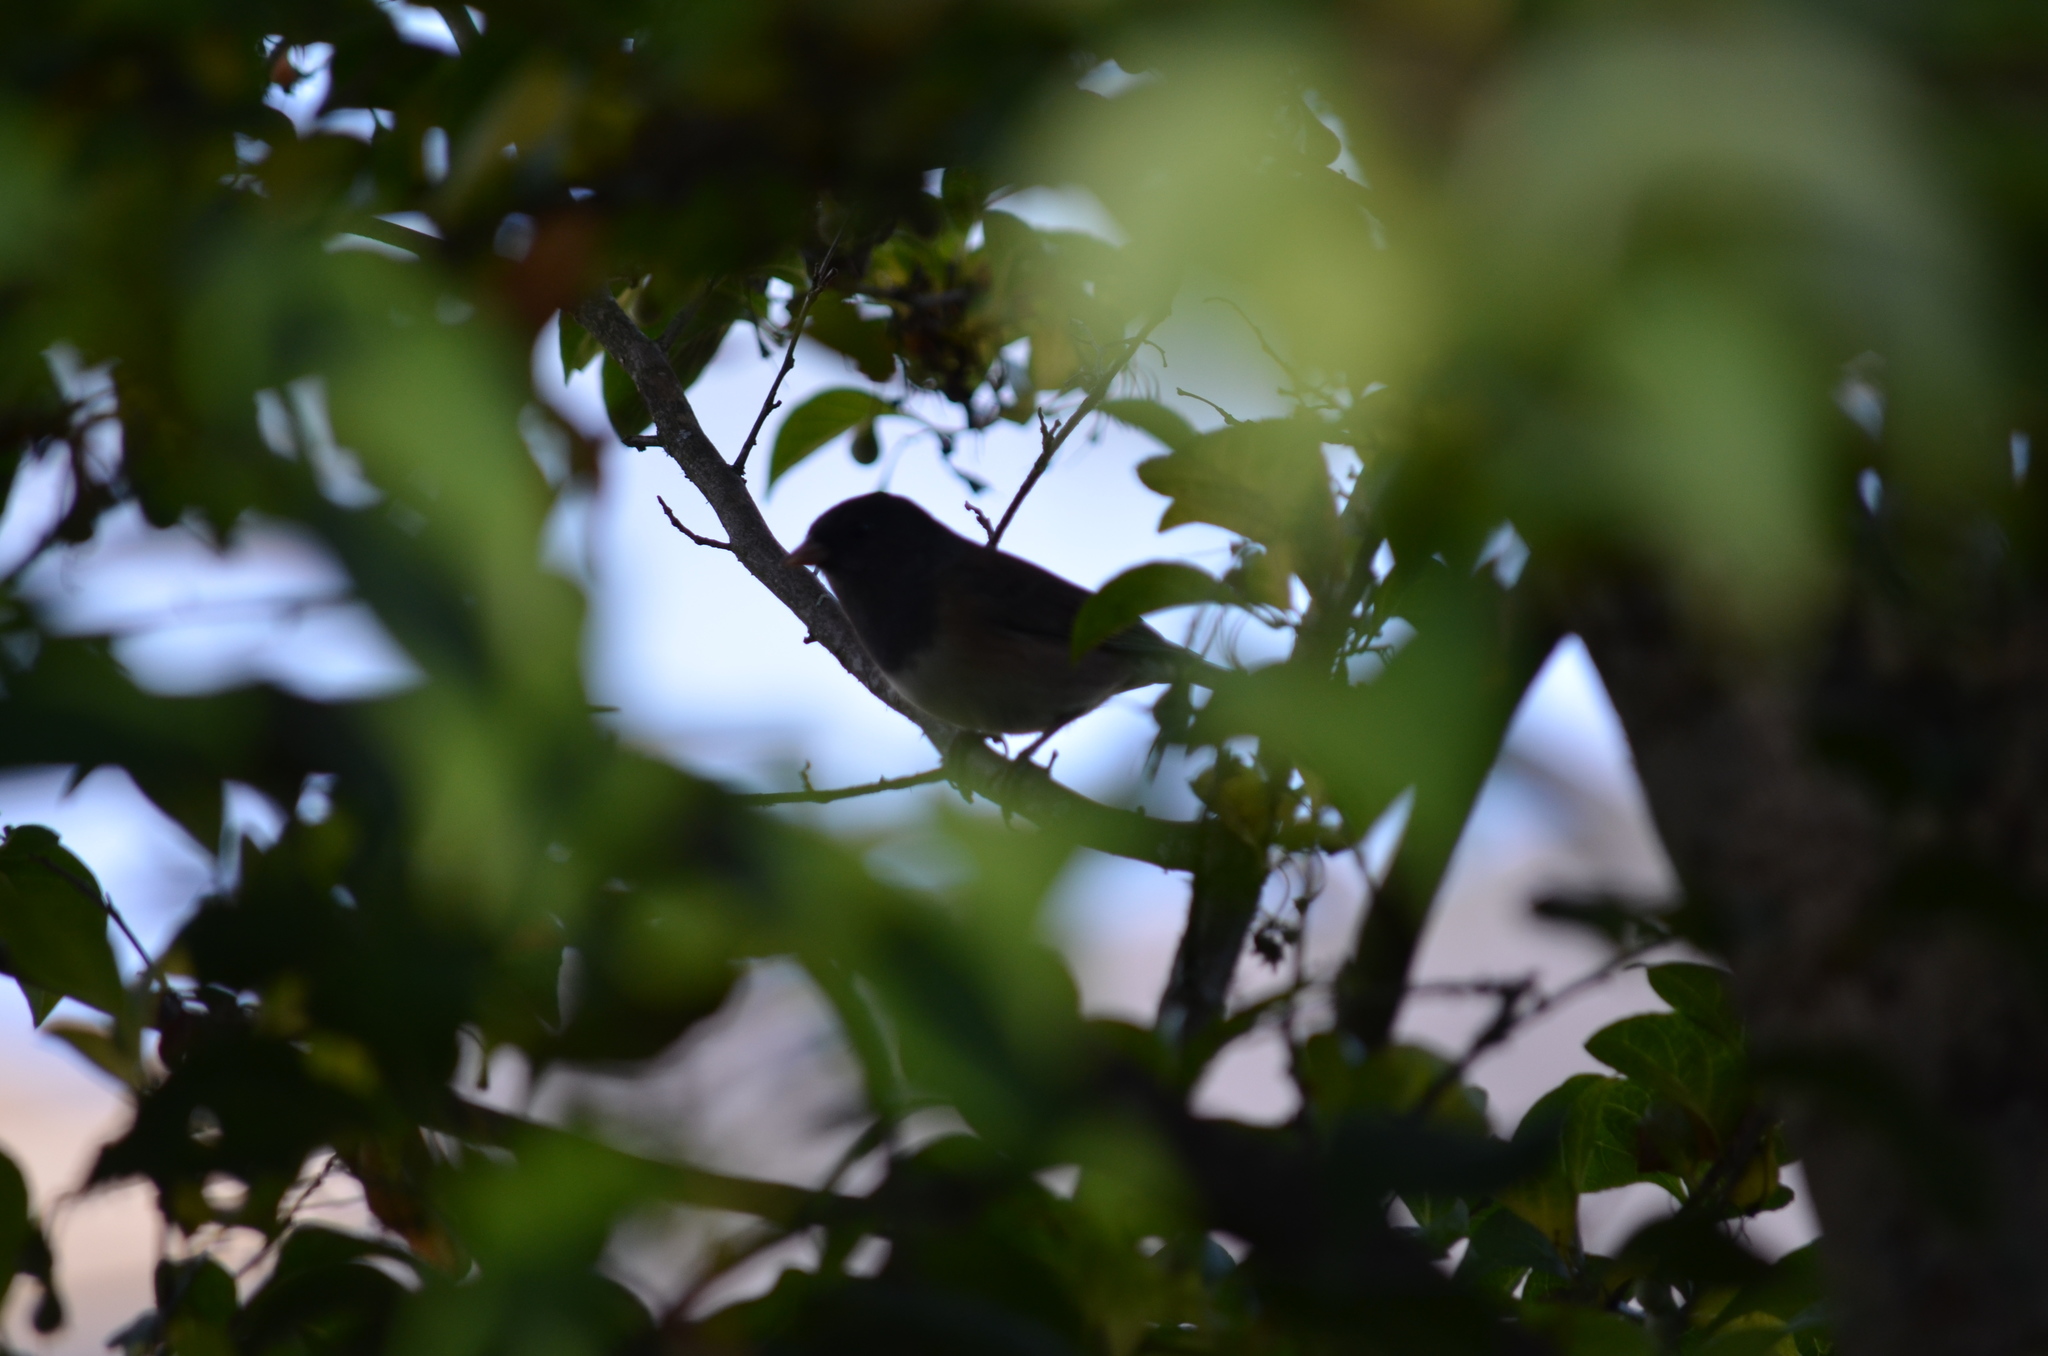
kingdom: Animalia
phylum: Chordata
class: Aves
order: Passeriformes
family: Passerellidae
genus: Junco
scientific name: Junco hyemalis
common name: Dark-eyed junco
